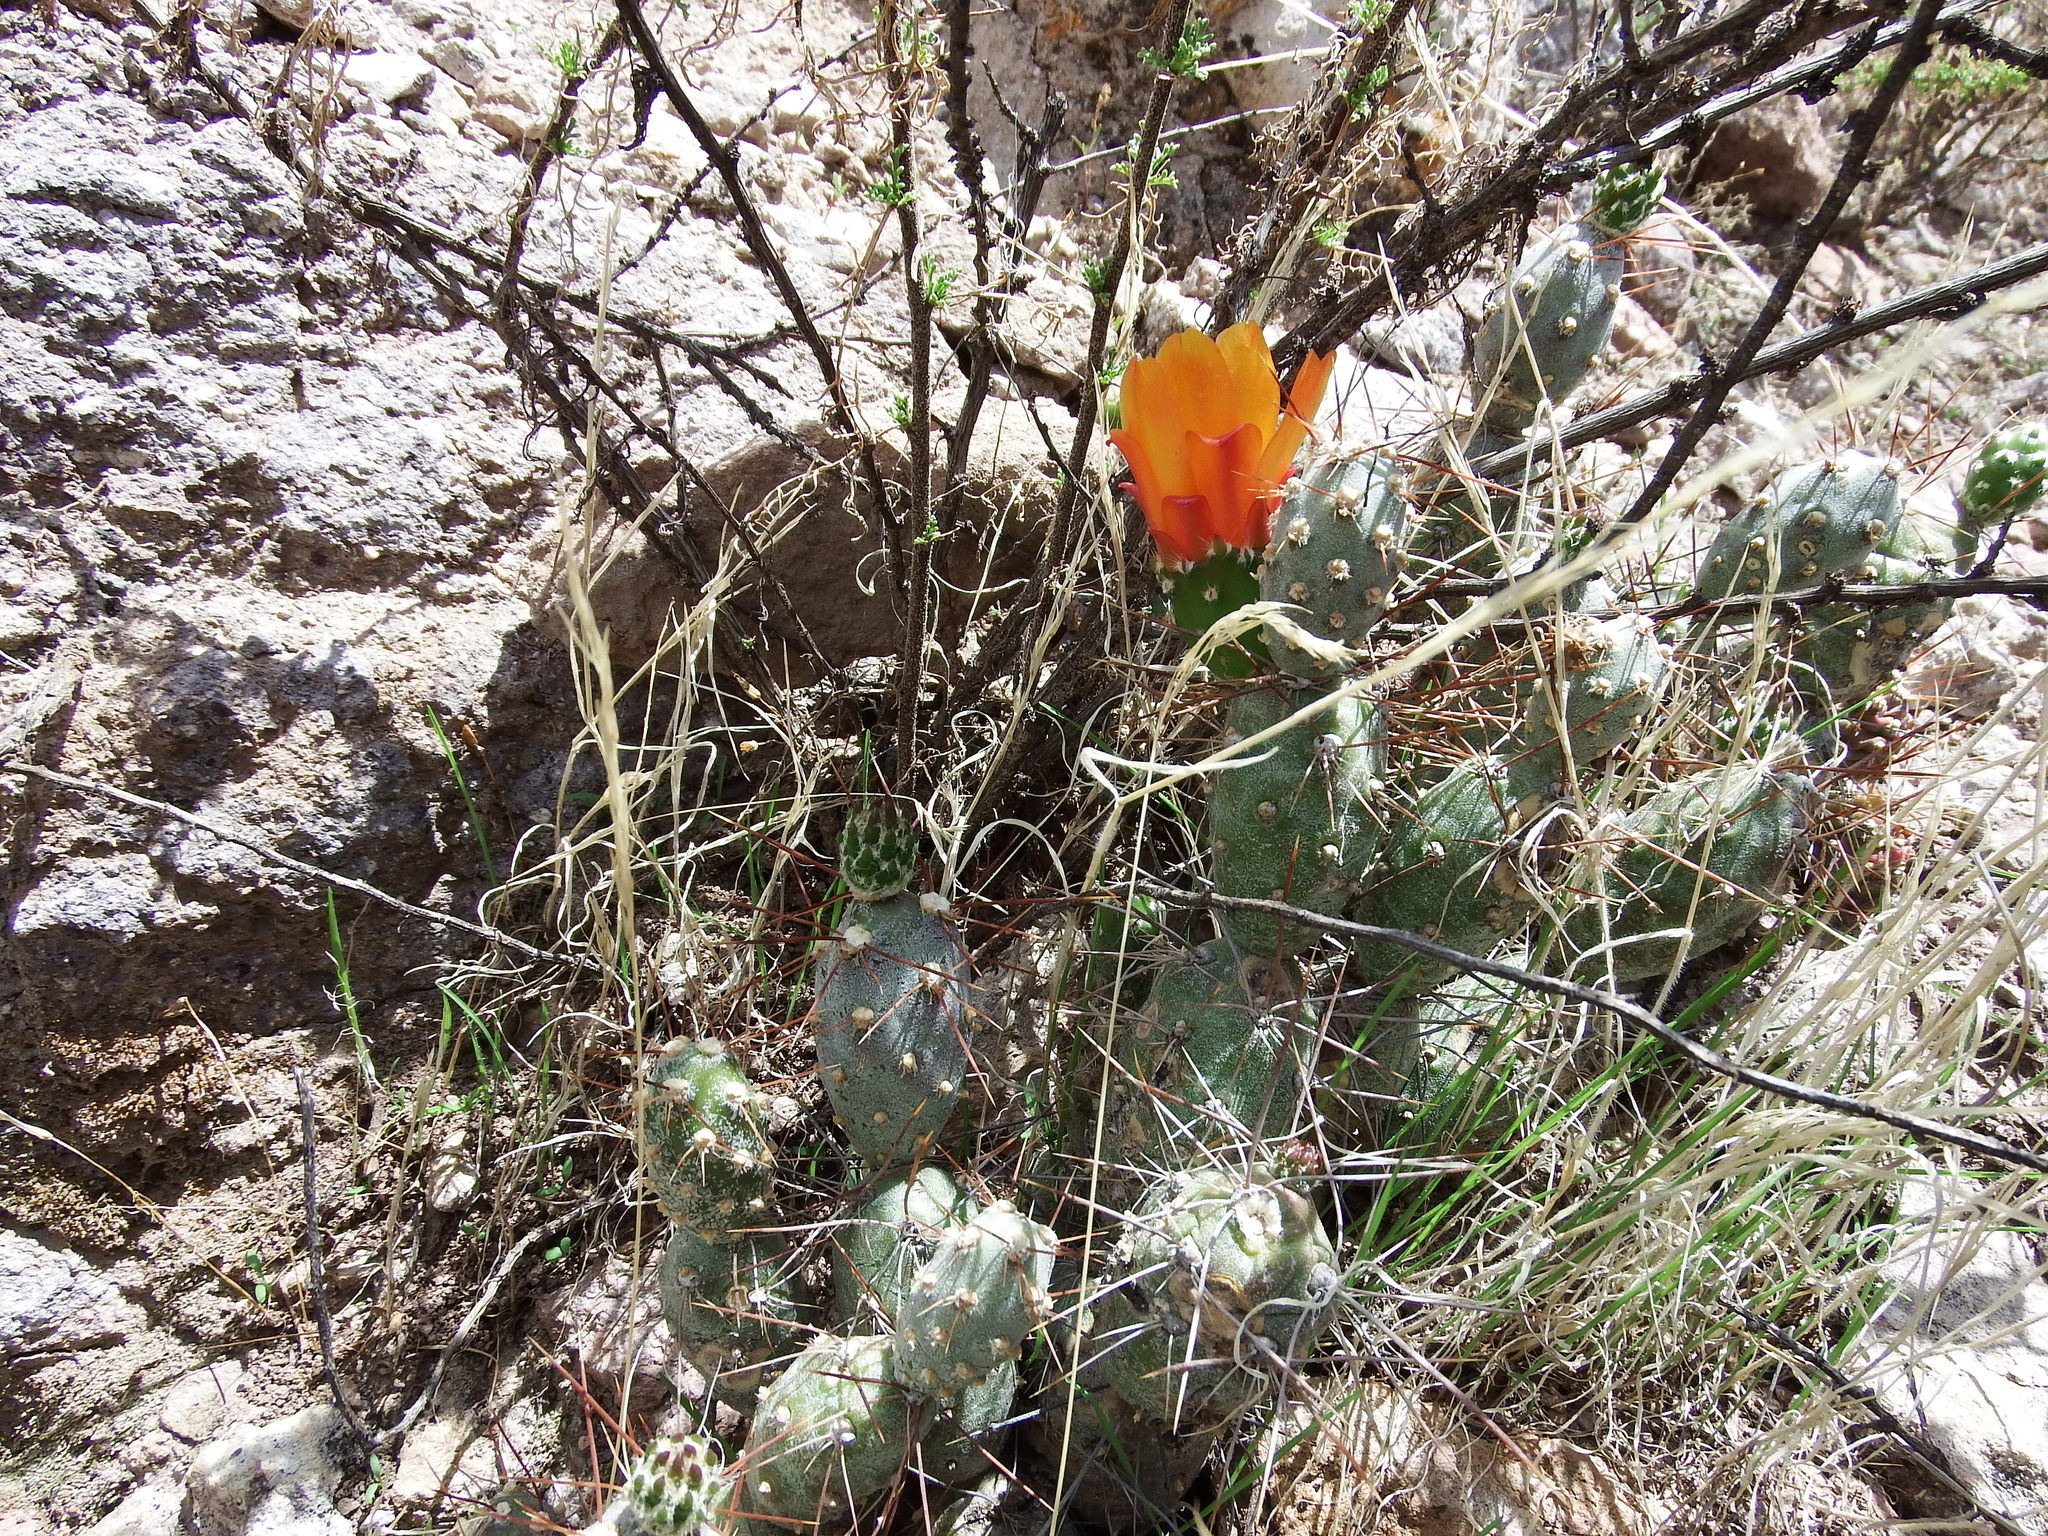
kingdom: Plantae
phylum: Tracheophyta
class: Magnoliopsida
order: Caryophyllales
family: Cactaceae
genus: Cumulopuntia
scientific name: Cumulopuntia leucophaea
